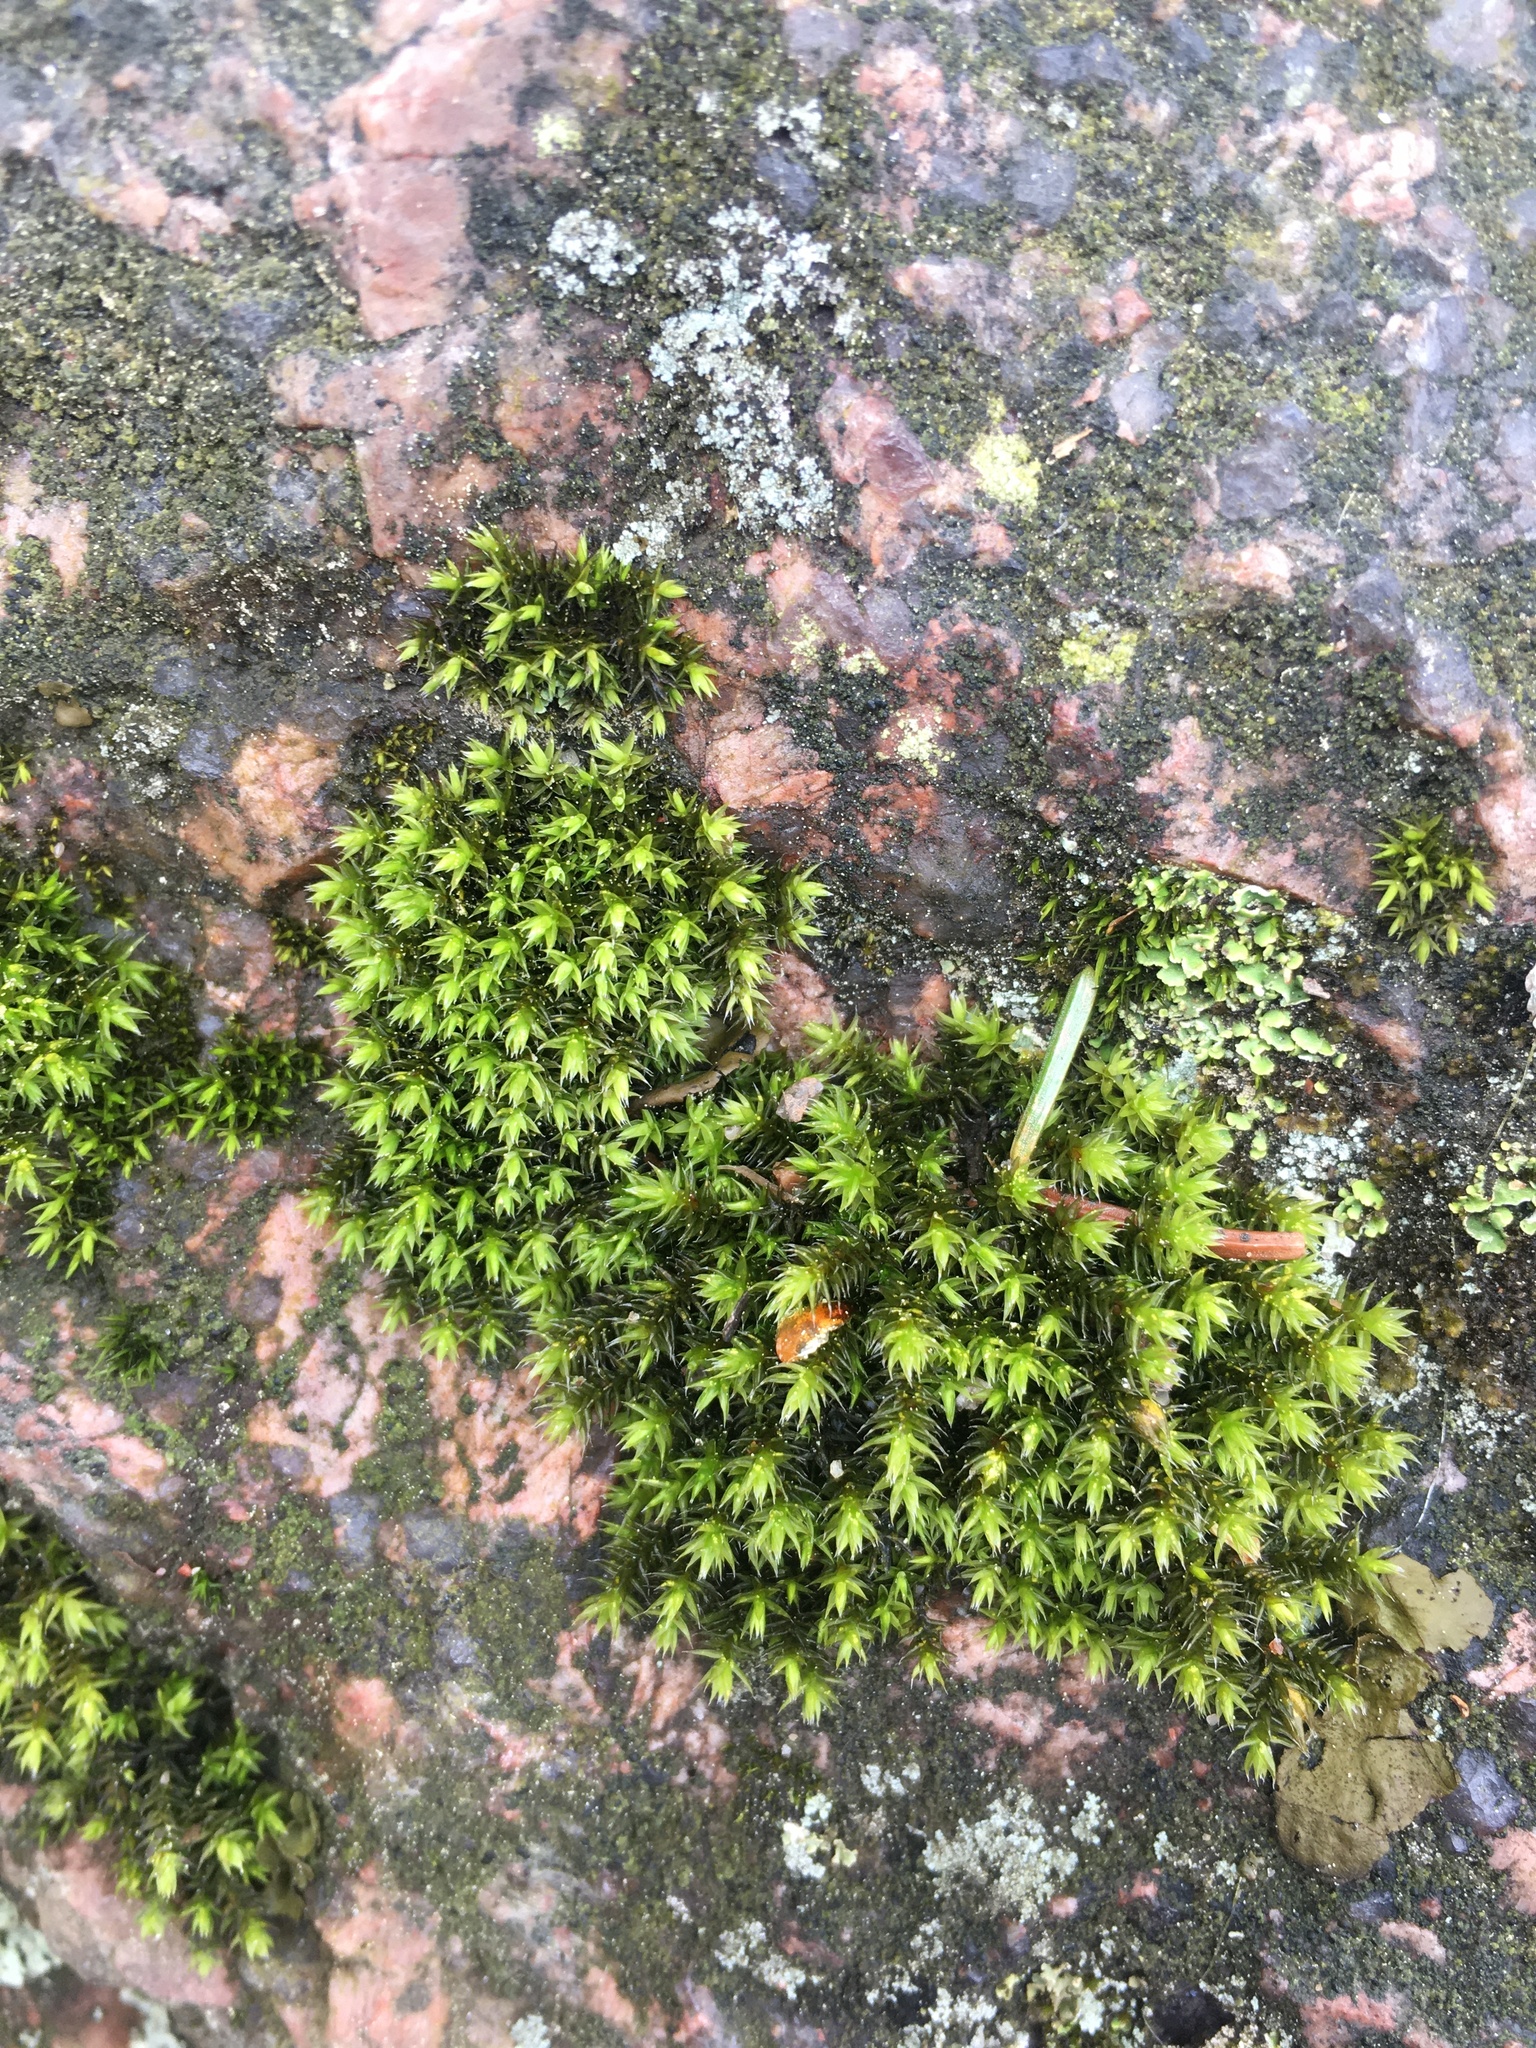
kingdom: Plantae
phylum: Bryophyta
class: Bryopsida
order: Hedwigiales
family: Hedwigiaceae
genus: Hedwigia
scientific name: Hedwigia ciliata
